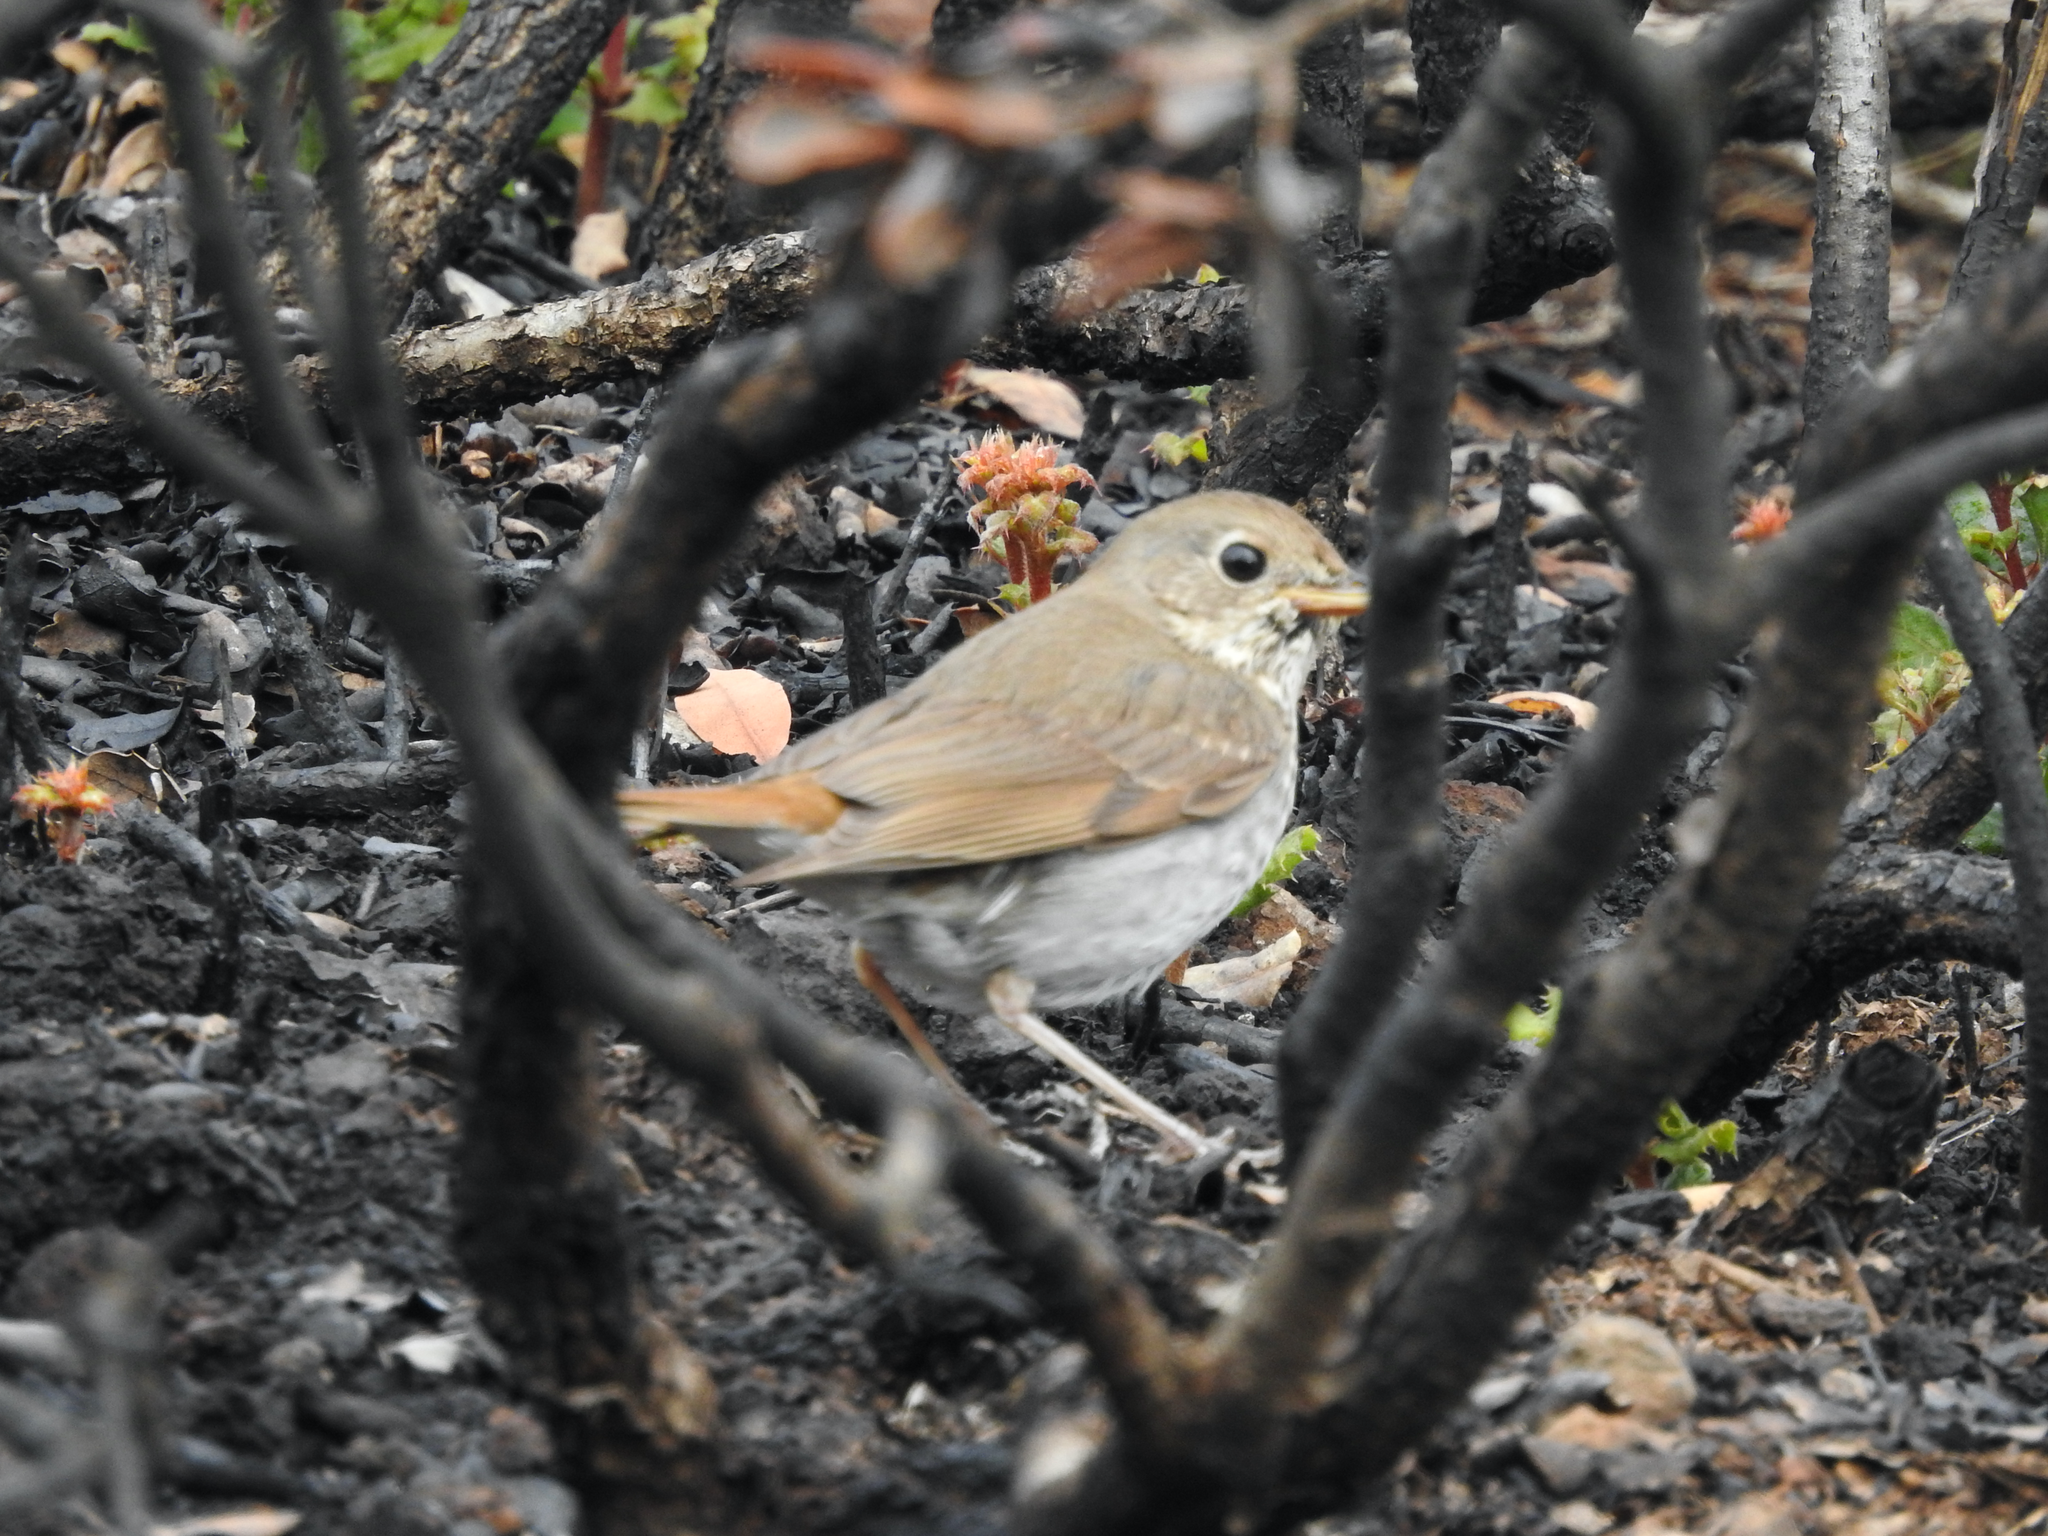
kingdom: Animalia
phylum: Chordata
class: Aves
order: Passeriformes
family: Turdidae
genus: Catharus
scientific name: Catharus guttatus
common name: Hermit thrush
